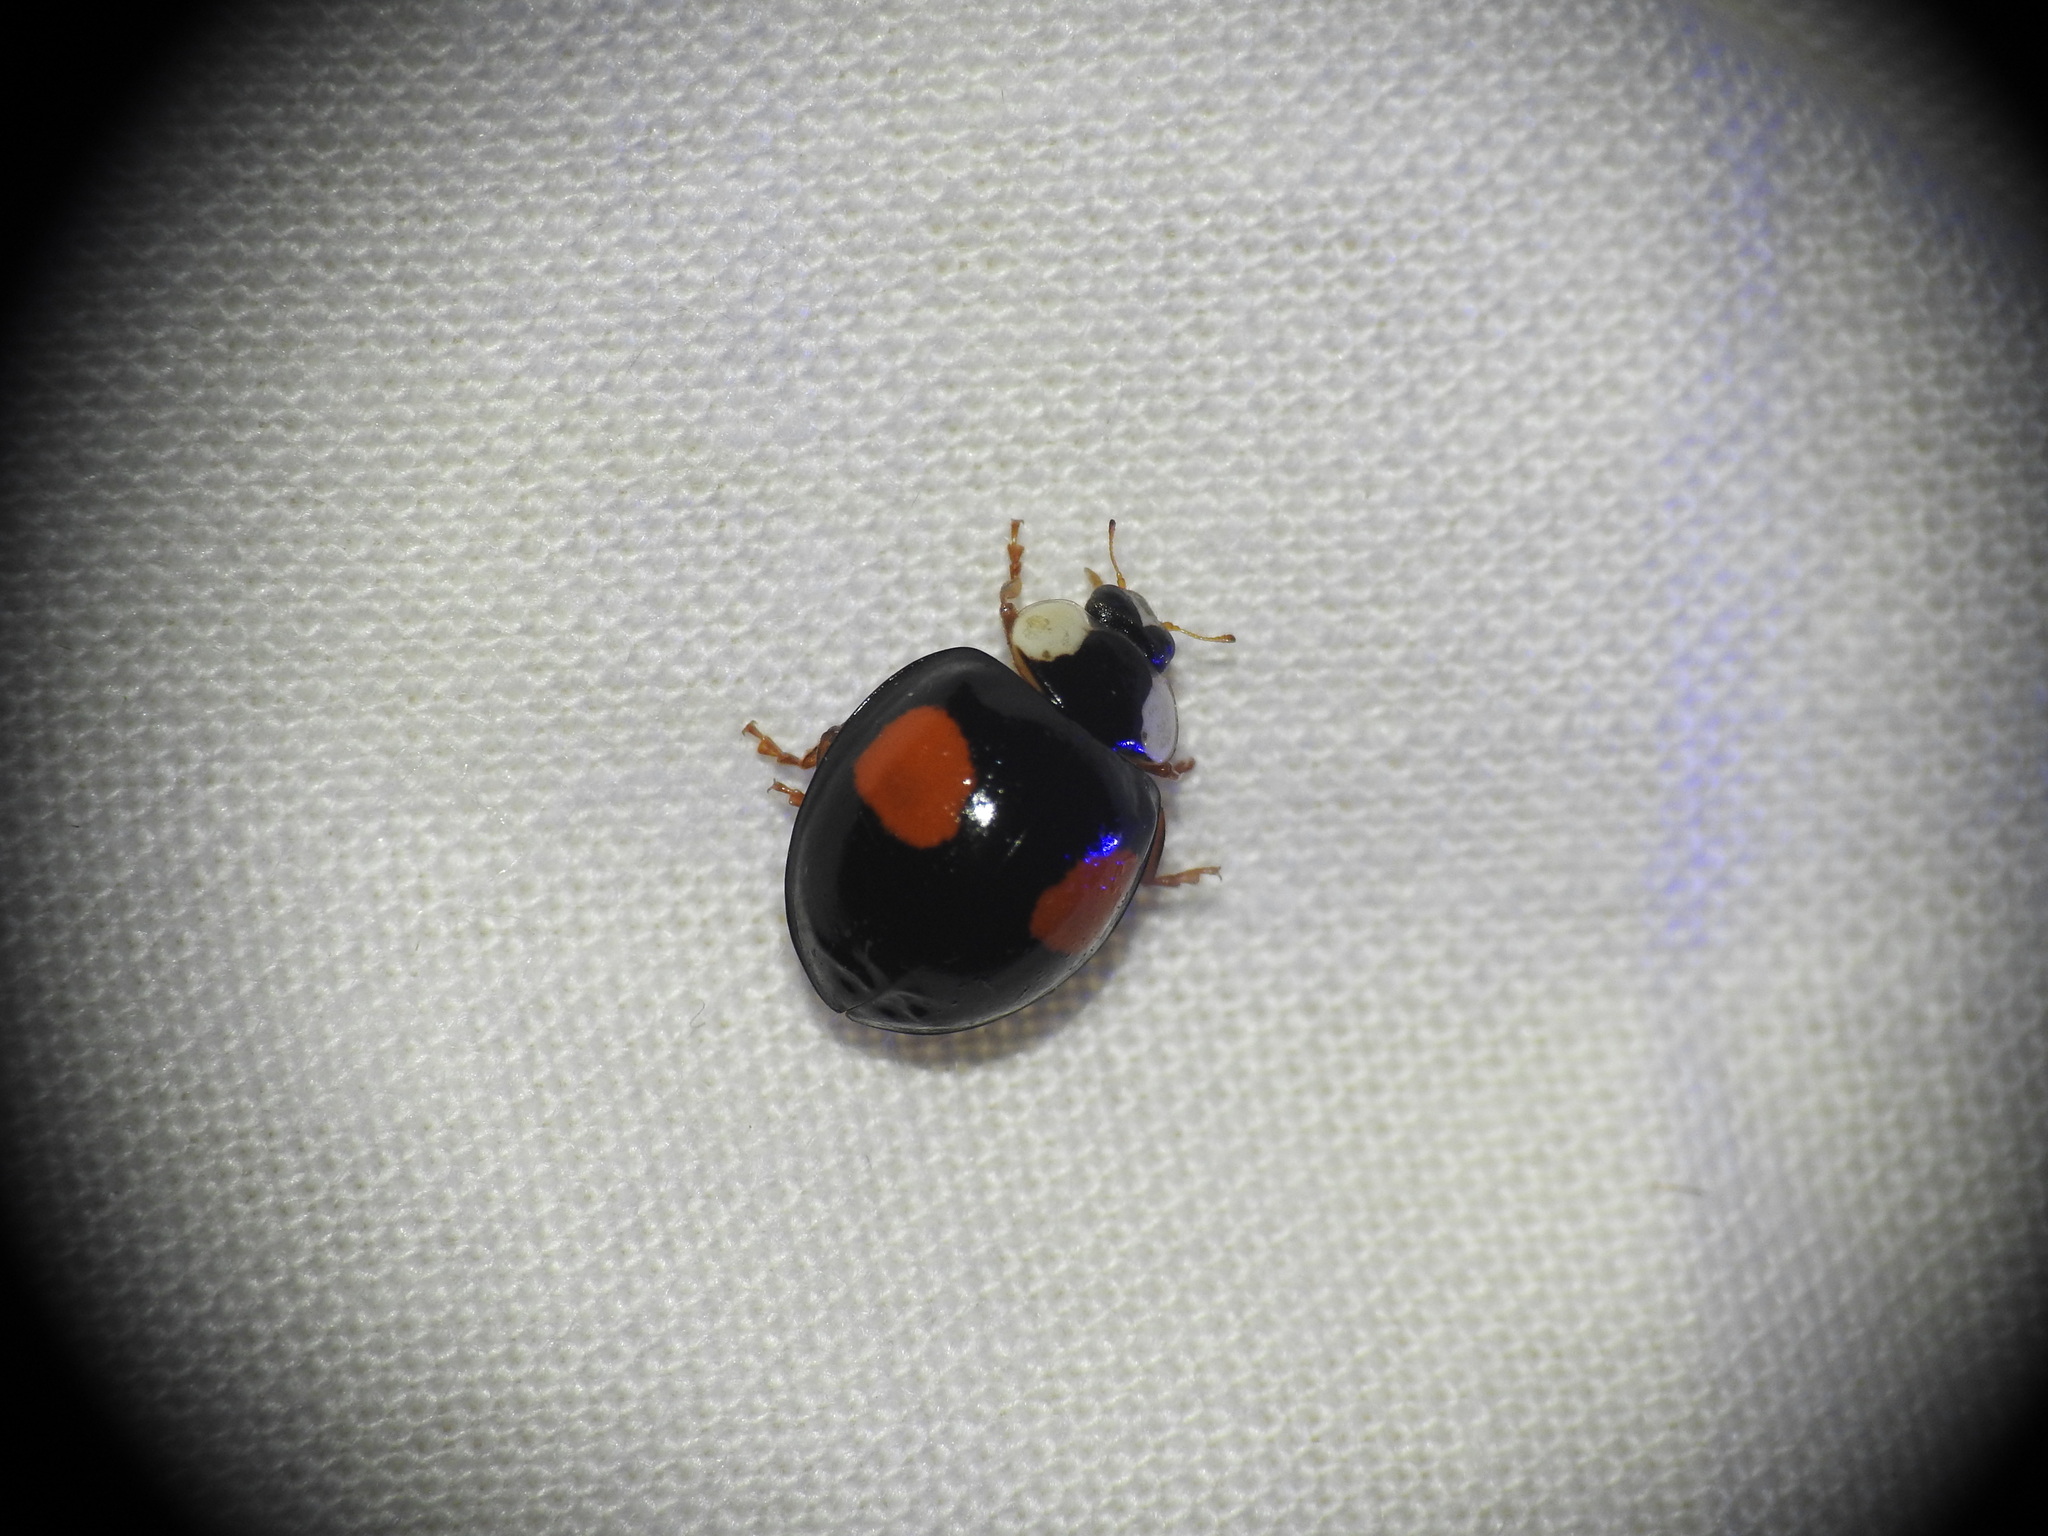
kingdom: Animalia
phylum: Arthropoda
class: Insecta
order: Coleoptera
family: Coccinellidae
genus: Harmonia
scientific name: Harmonia axyridis
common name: Harlequin ladybird
